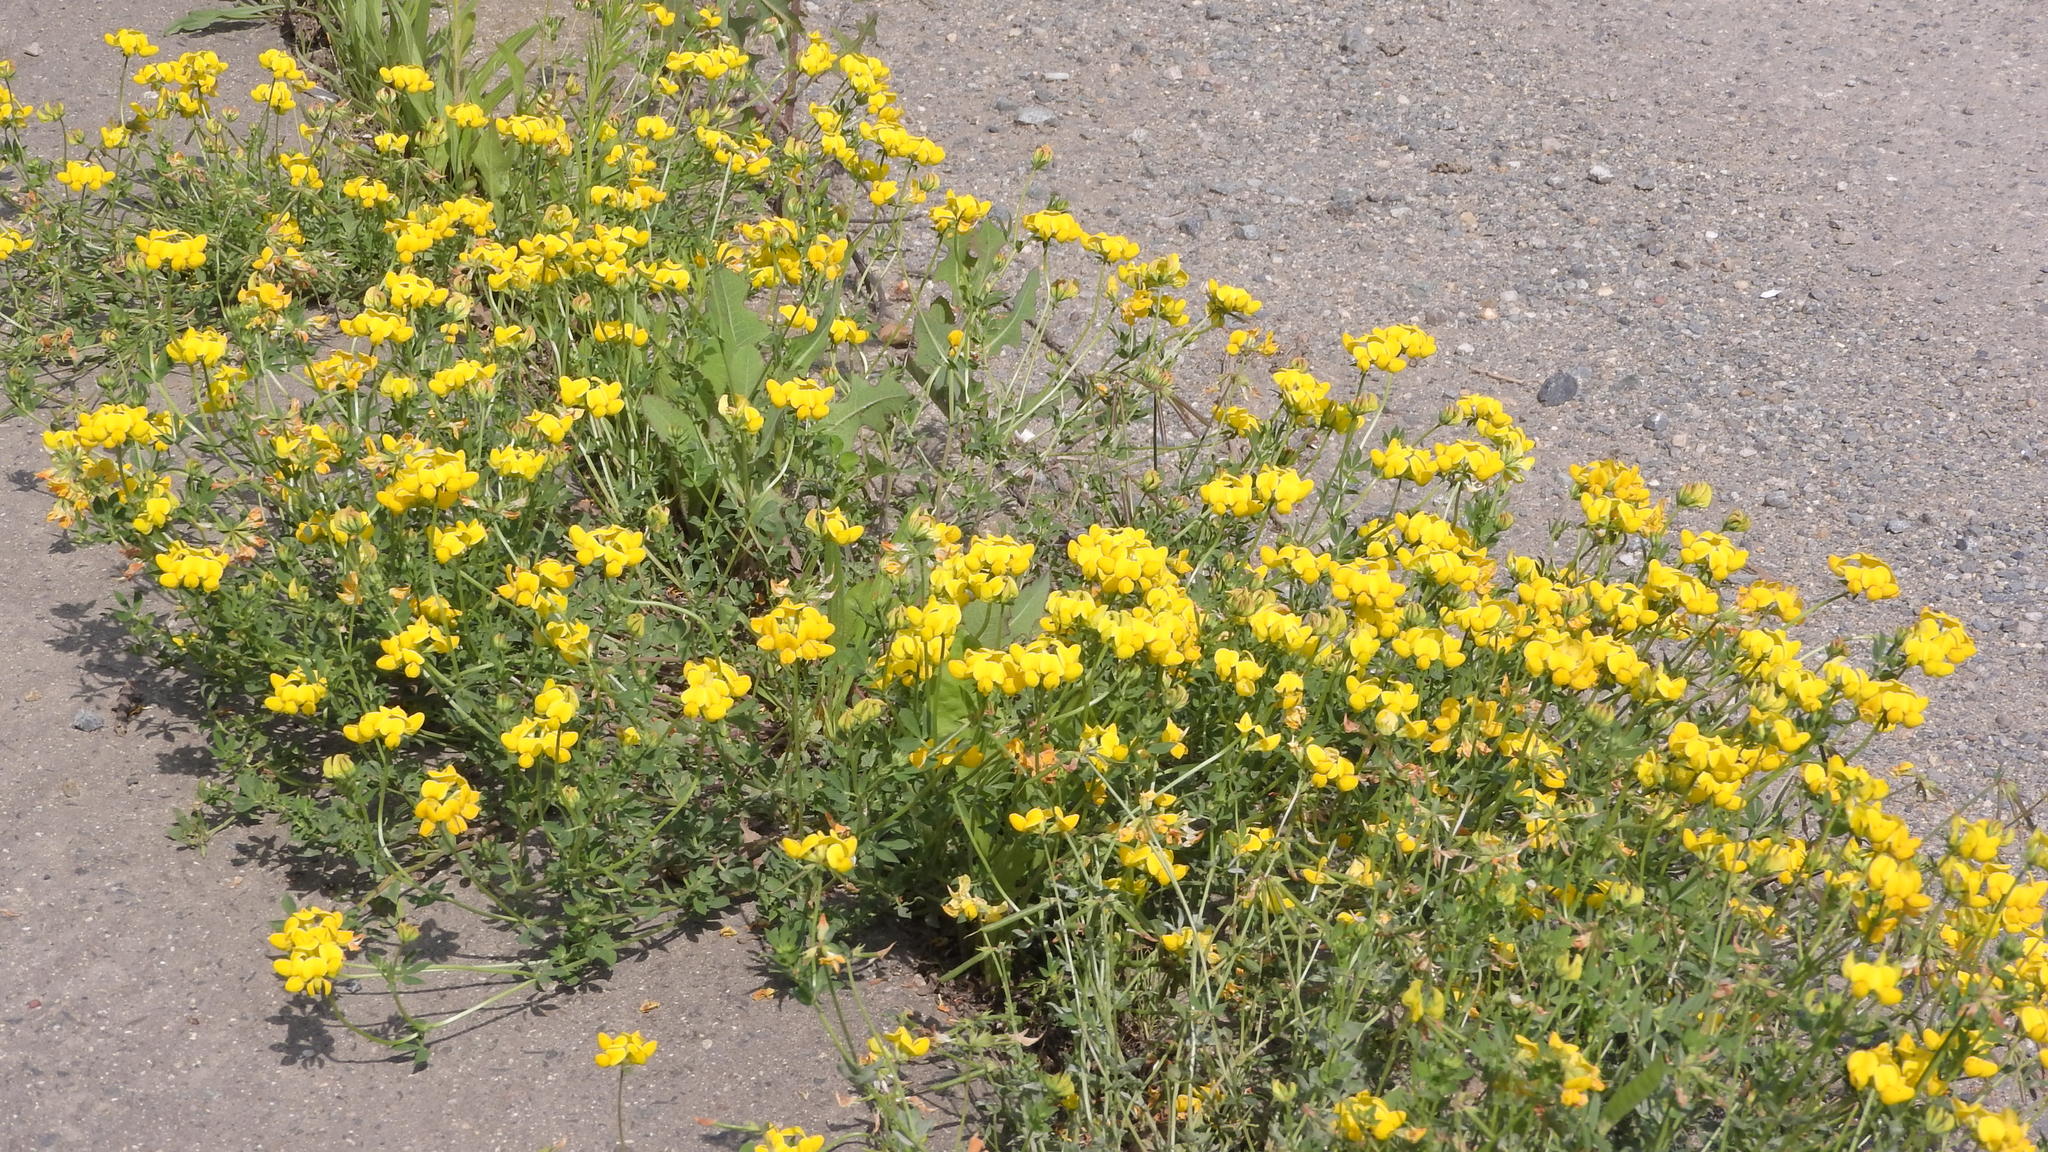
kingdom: Plantae
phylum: Tracheophyta
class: Magnoliopsida
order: Fabales
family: Fabaceae
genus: Lotus
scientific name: Lotus corniculatus
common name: Common bird's-foot-trefoil
